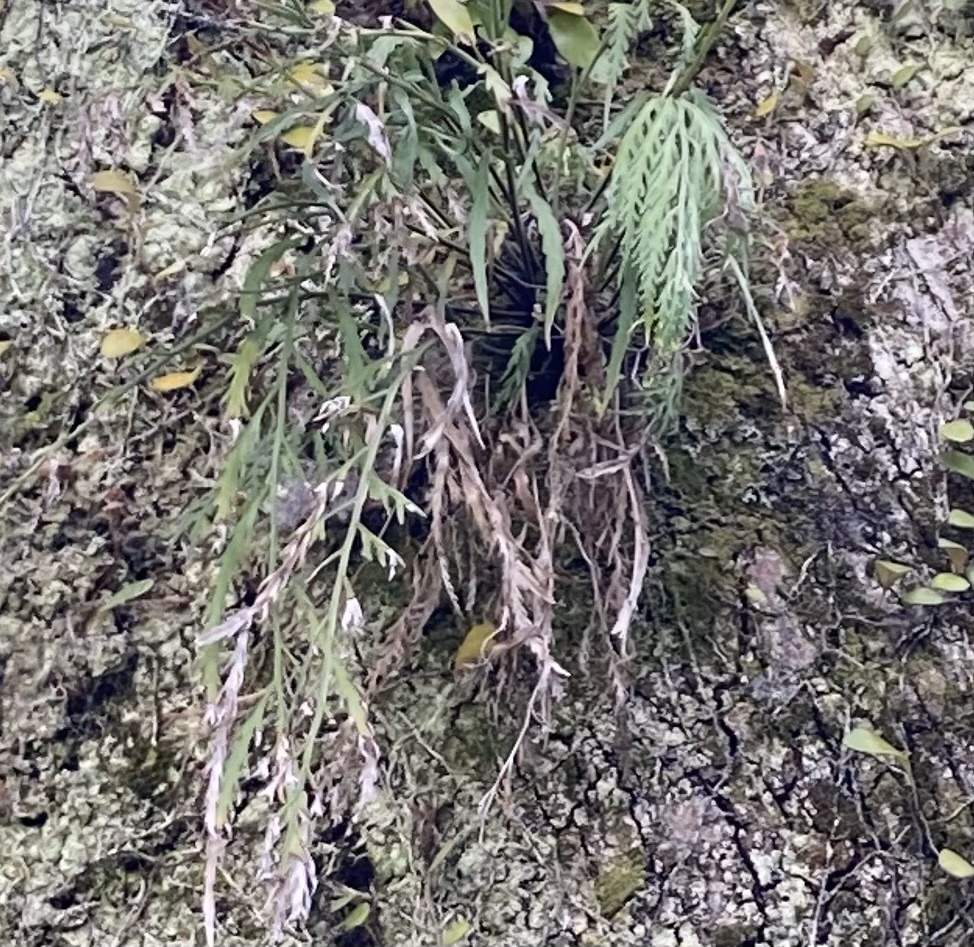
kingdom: Plantae
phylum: Tracheophyta
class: Polypodiopsida
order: Polypodiales
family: Aspleniaceae
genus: Asplenium
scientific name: Asplenium flaccidum
